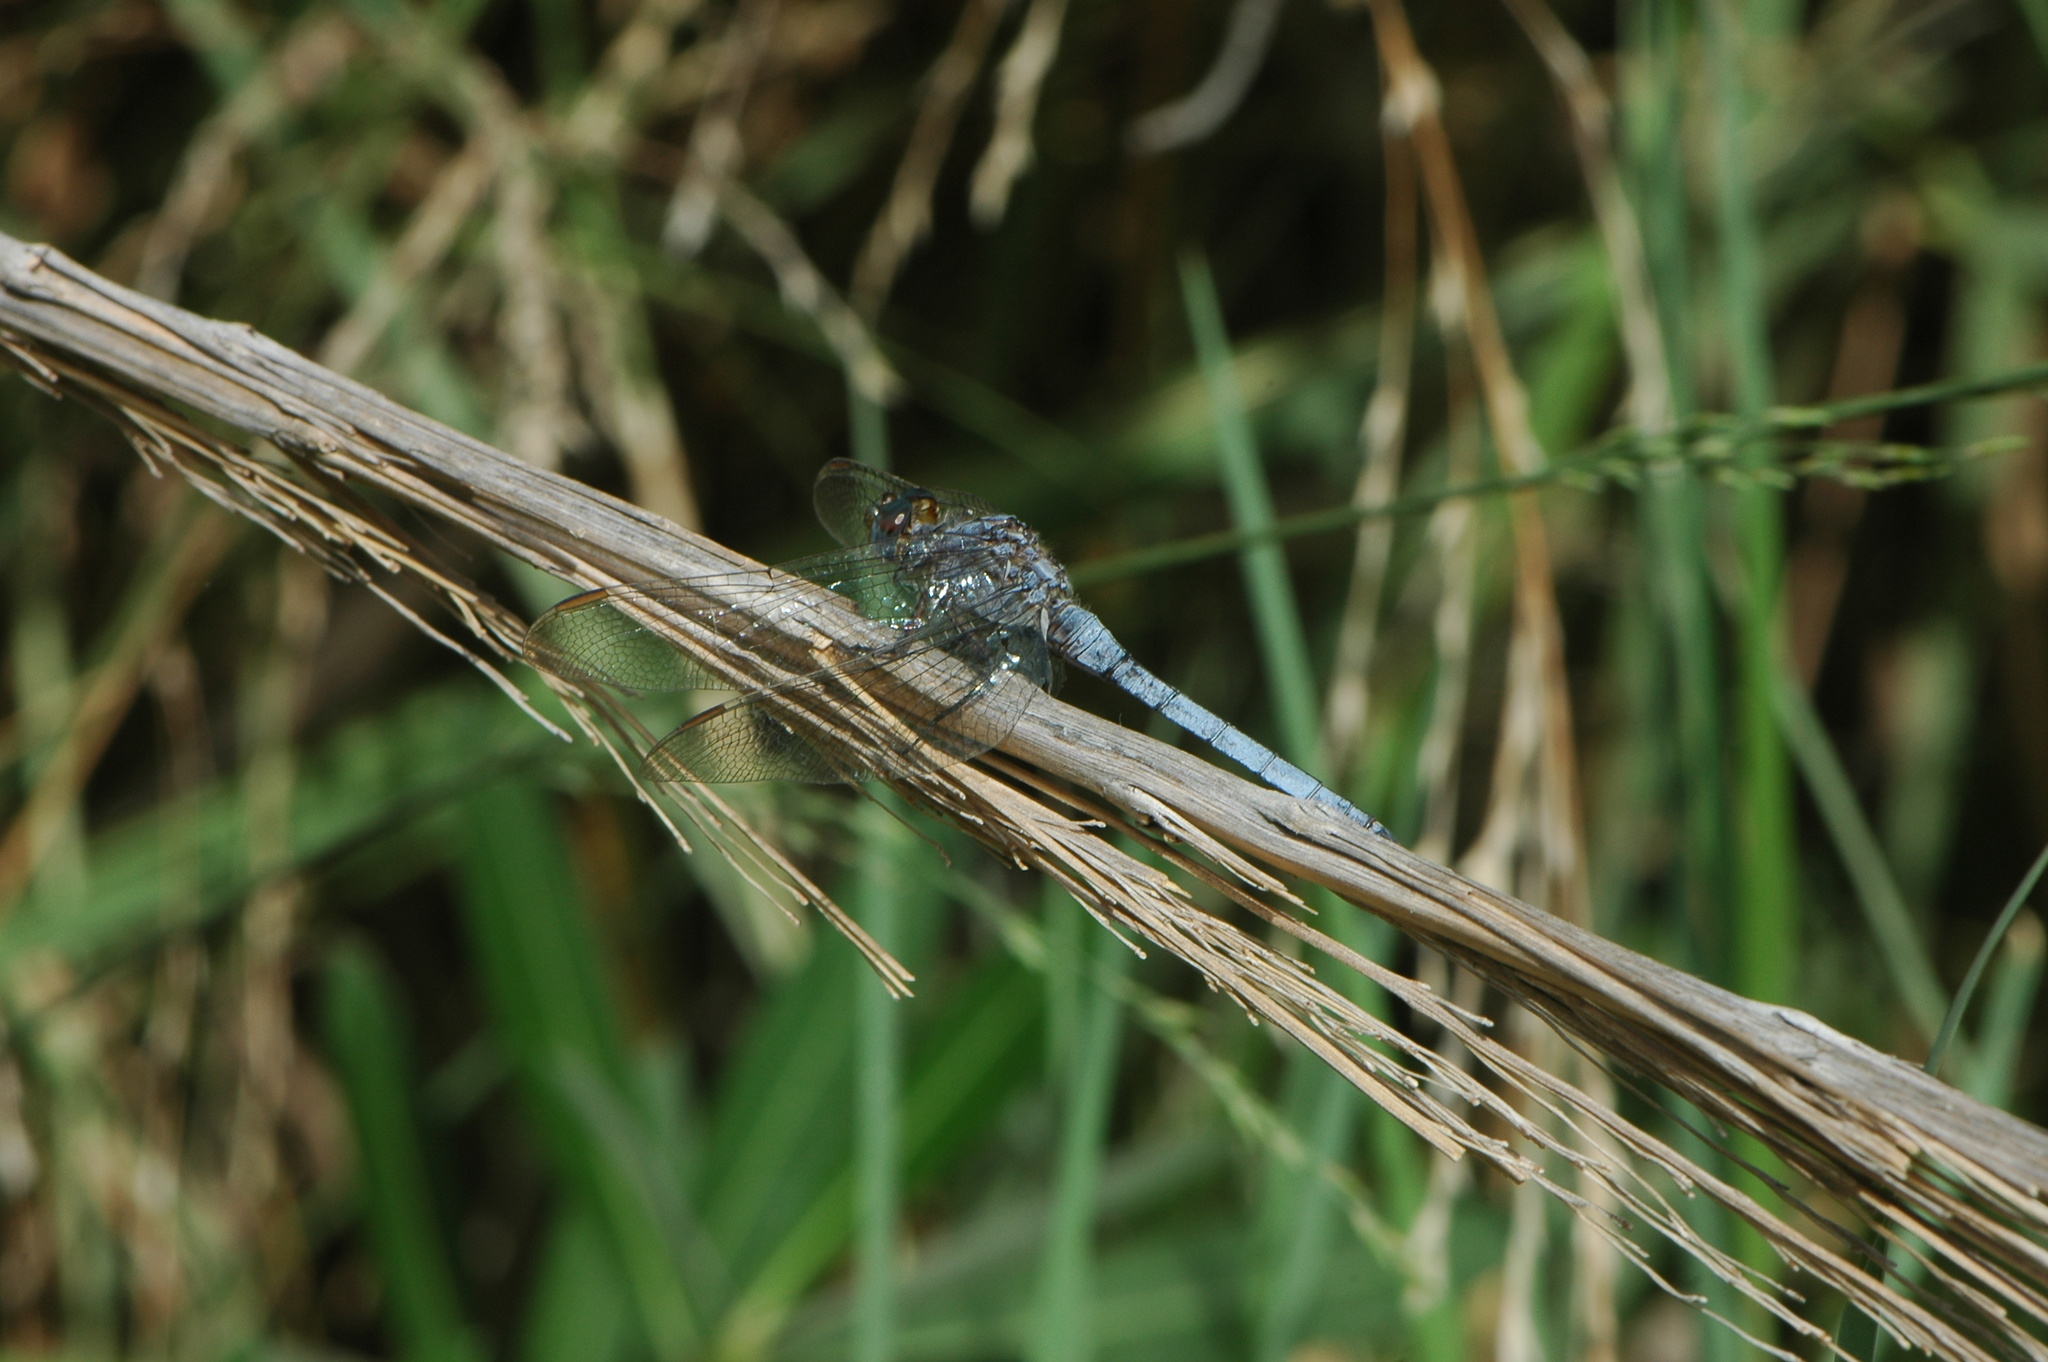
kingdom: Animalia
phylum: Arthropoda
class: Insecta
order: Odonata
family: Libellulidae
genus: Orthetrum
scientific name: Orthetrum chrysostigma
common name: Epaulet skimmer
